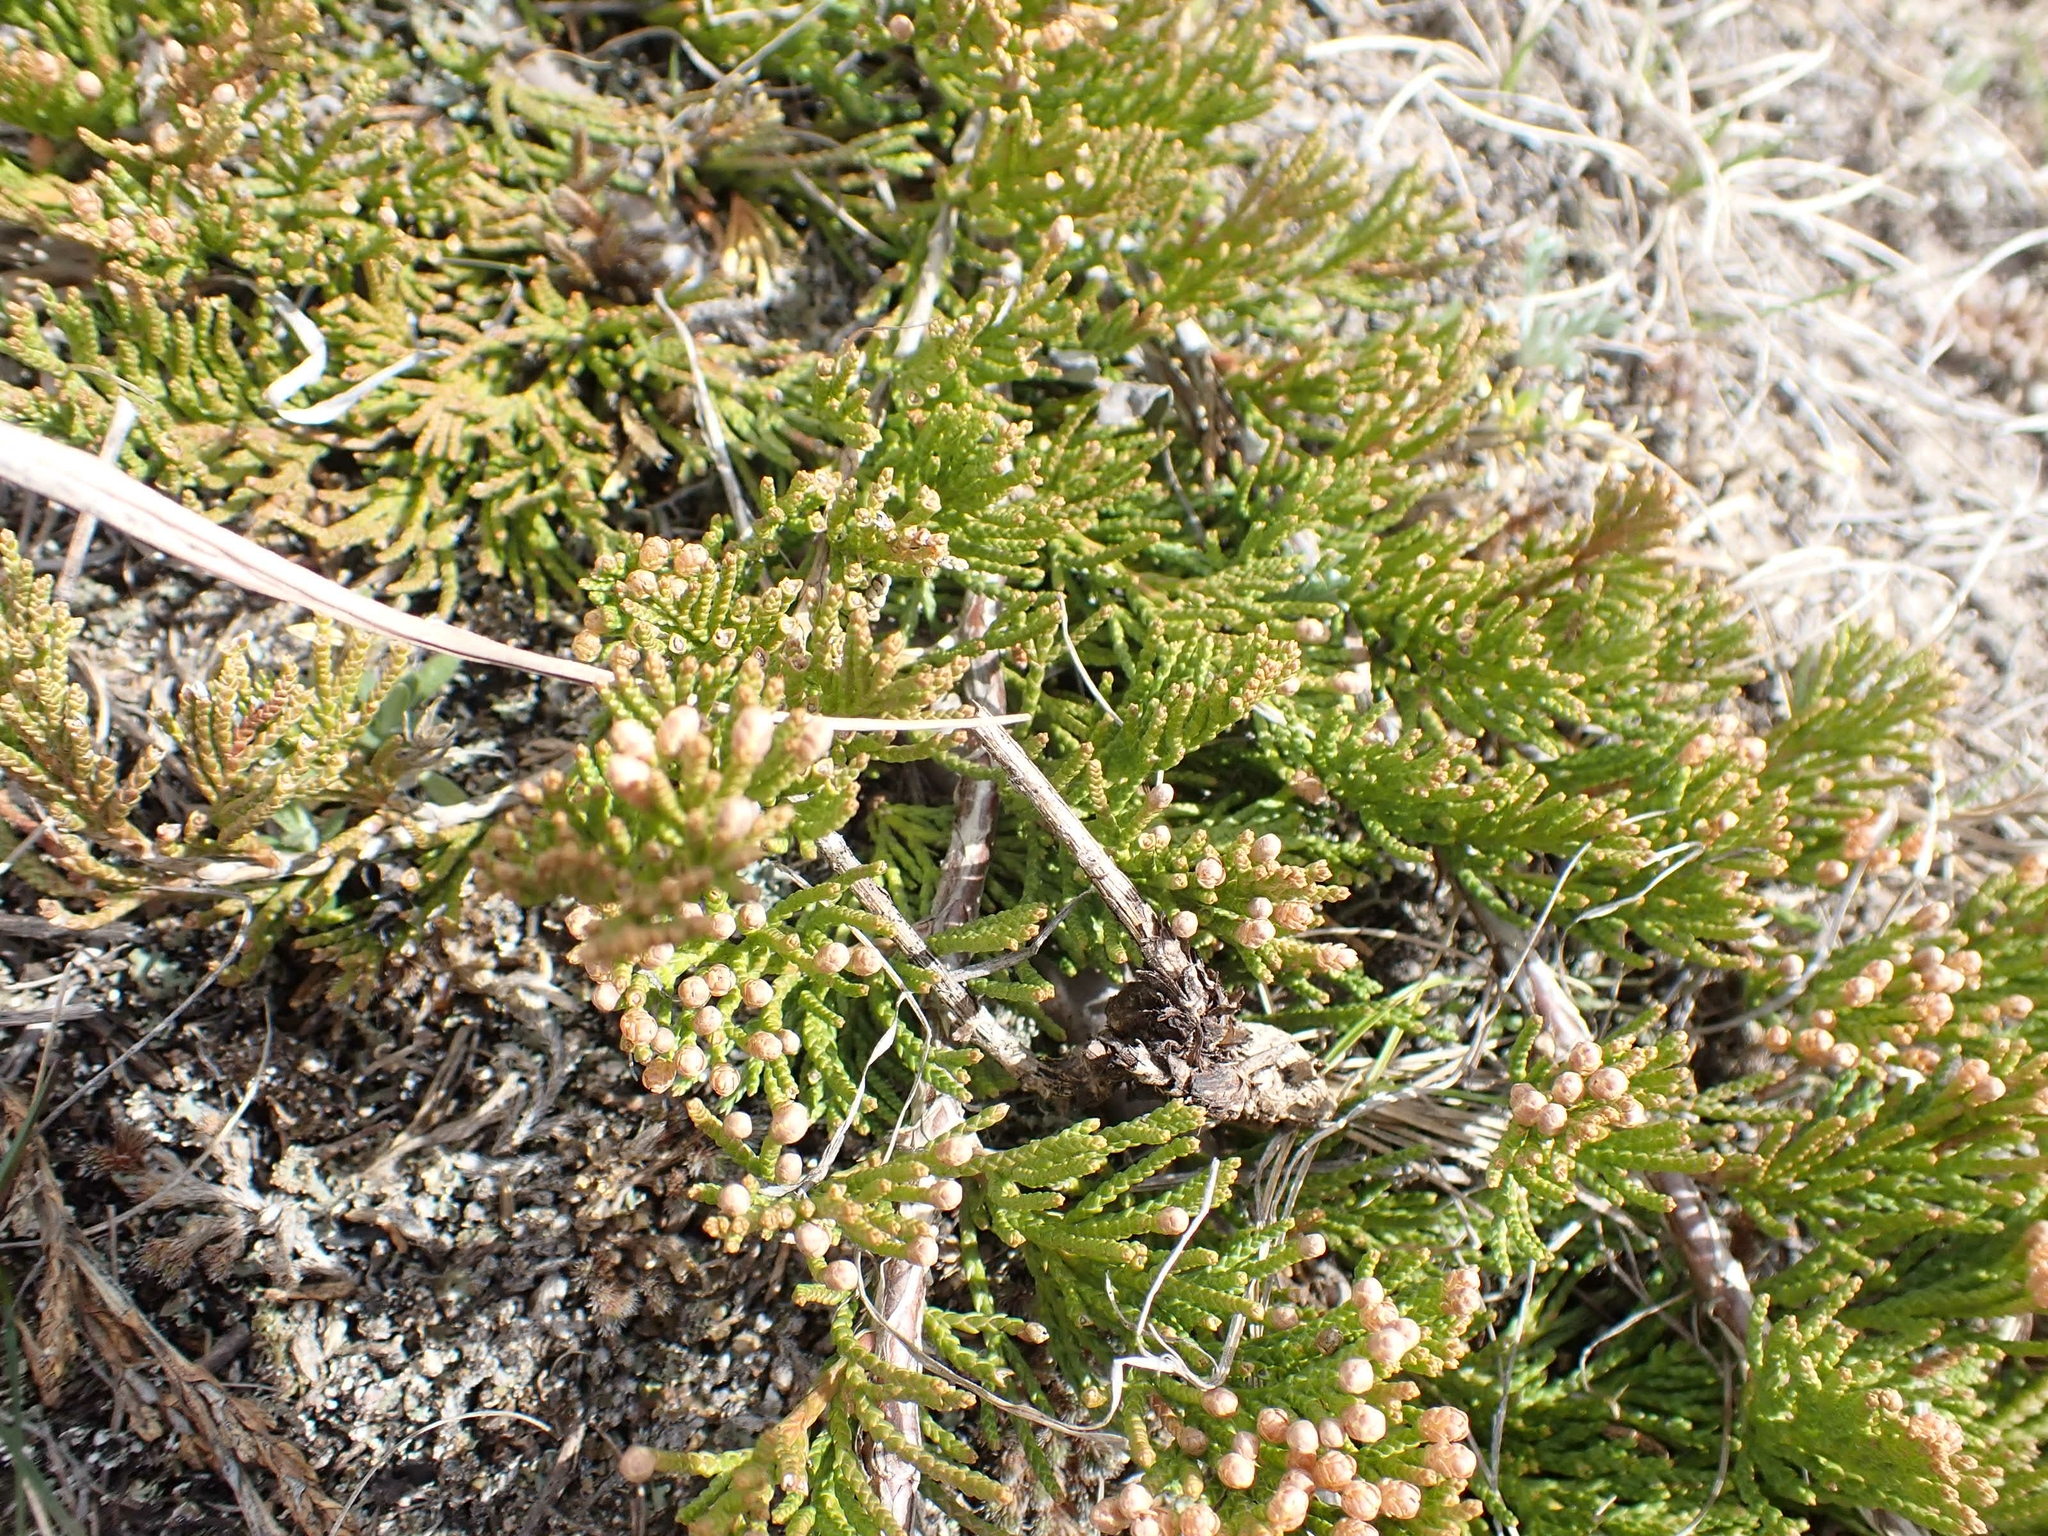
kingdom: Plantae
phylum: Tracheophyta
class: Pinopsida
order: Pinales
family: Cupressaceae
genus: Juniperus
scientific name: Juniperus horizontalis
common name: Creeping juniper
